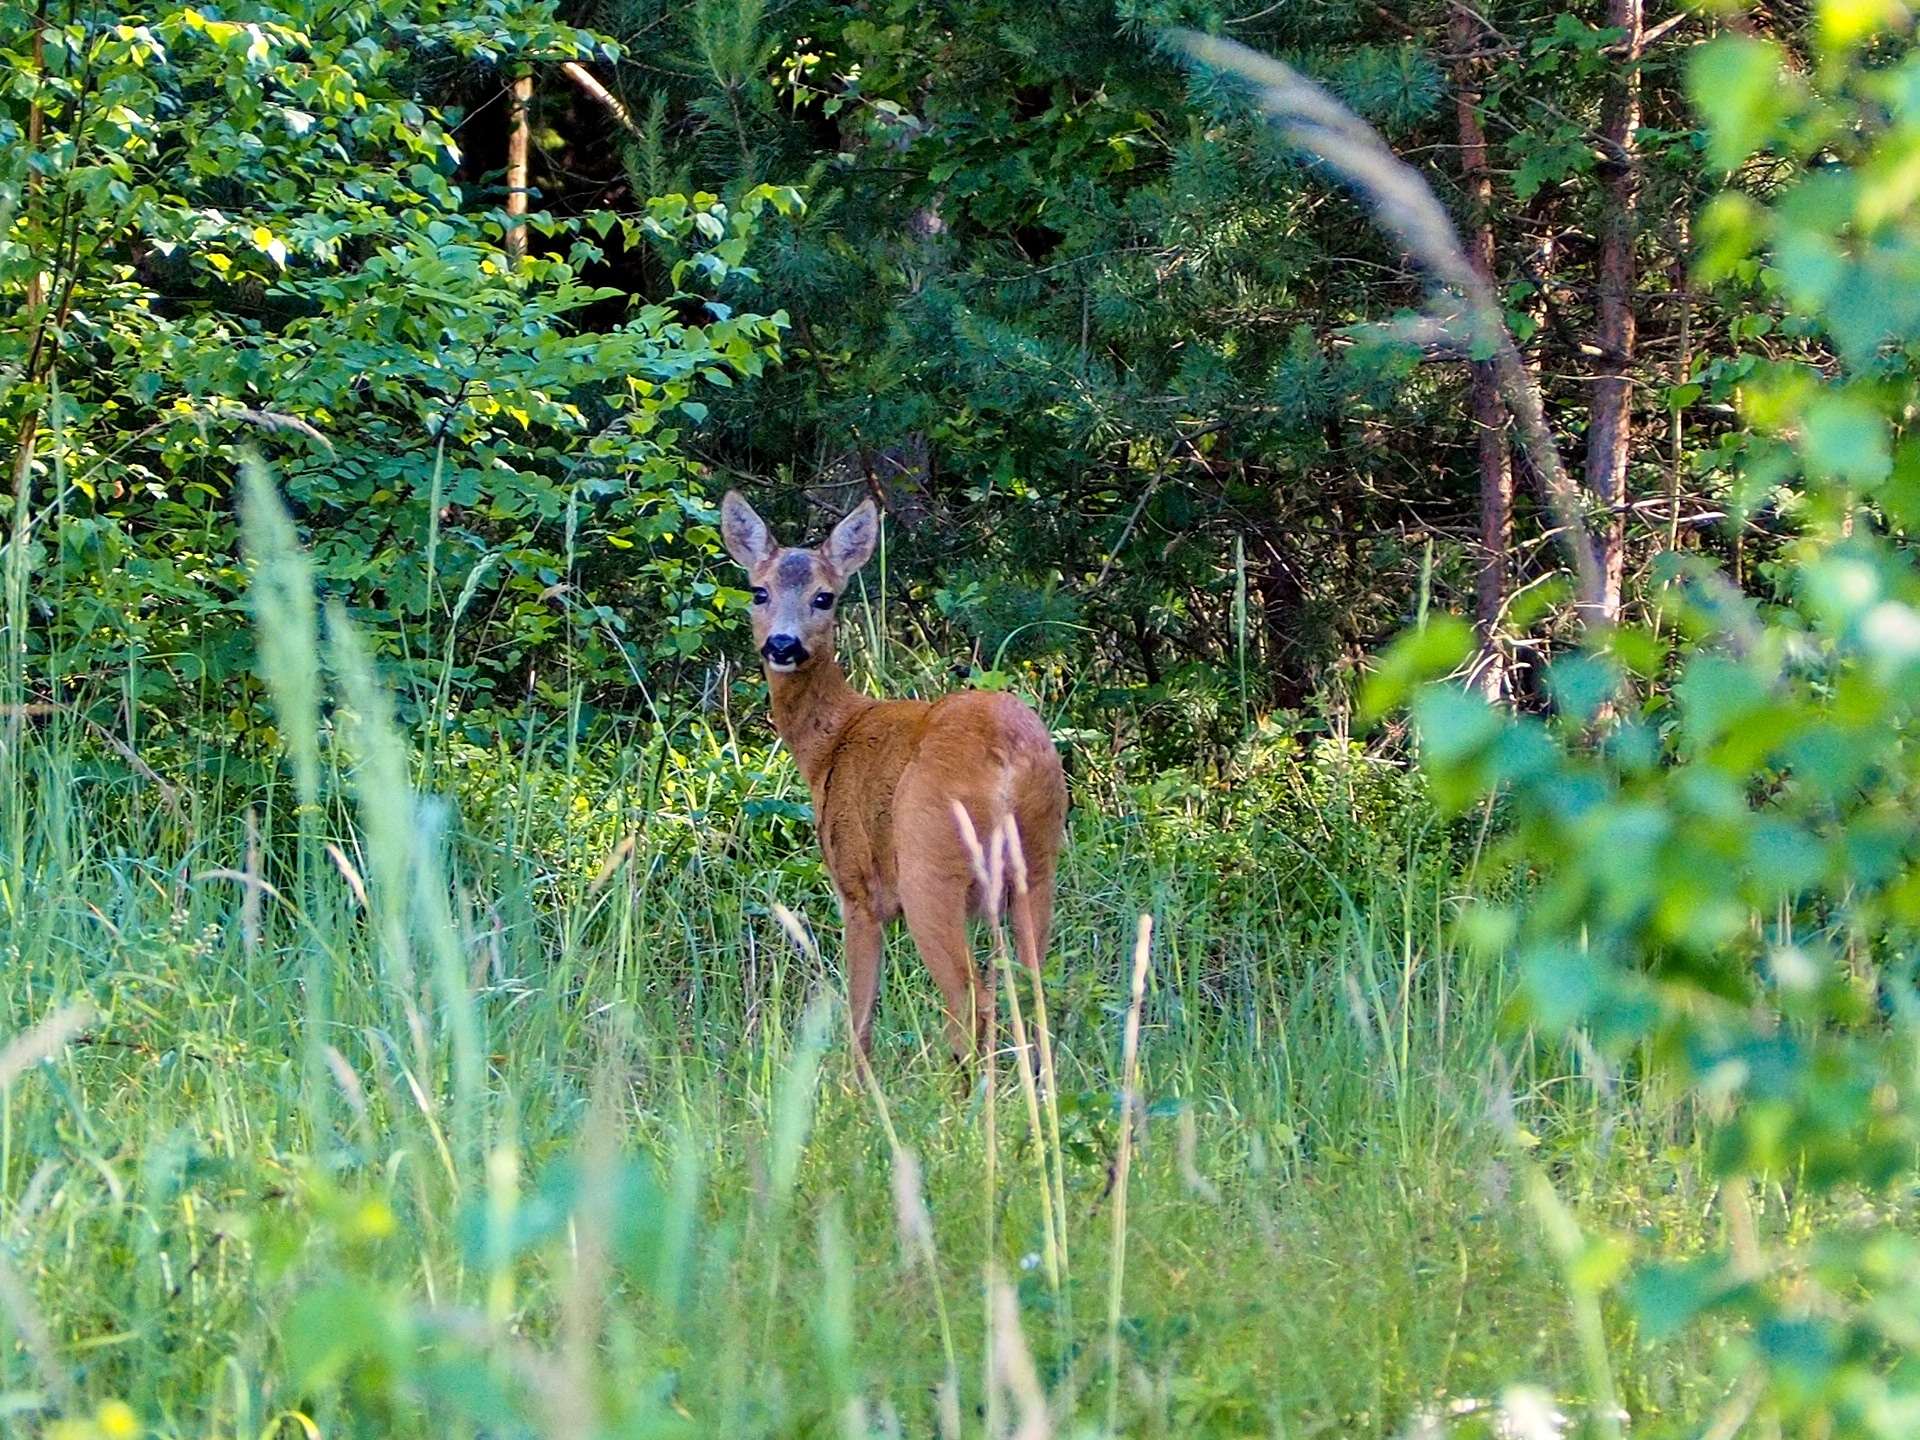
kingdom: Animalia
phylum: Chordata
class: Mammalia
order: Artiodactyla
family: Cervidae
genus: Capreolus
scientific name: Capreolus capreolus
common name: Western roe deer
